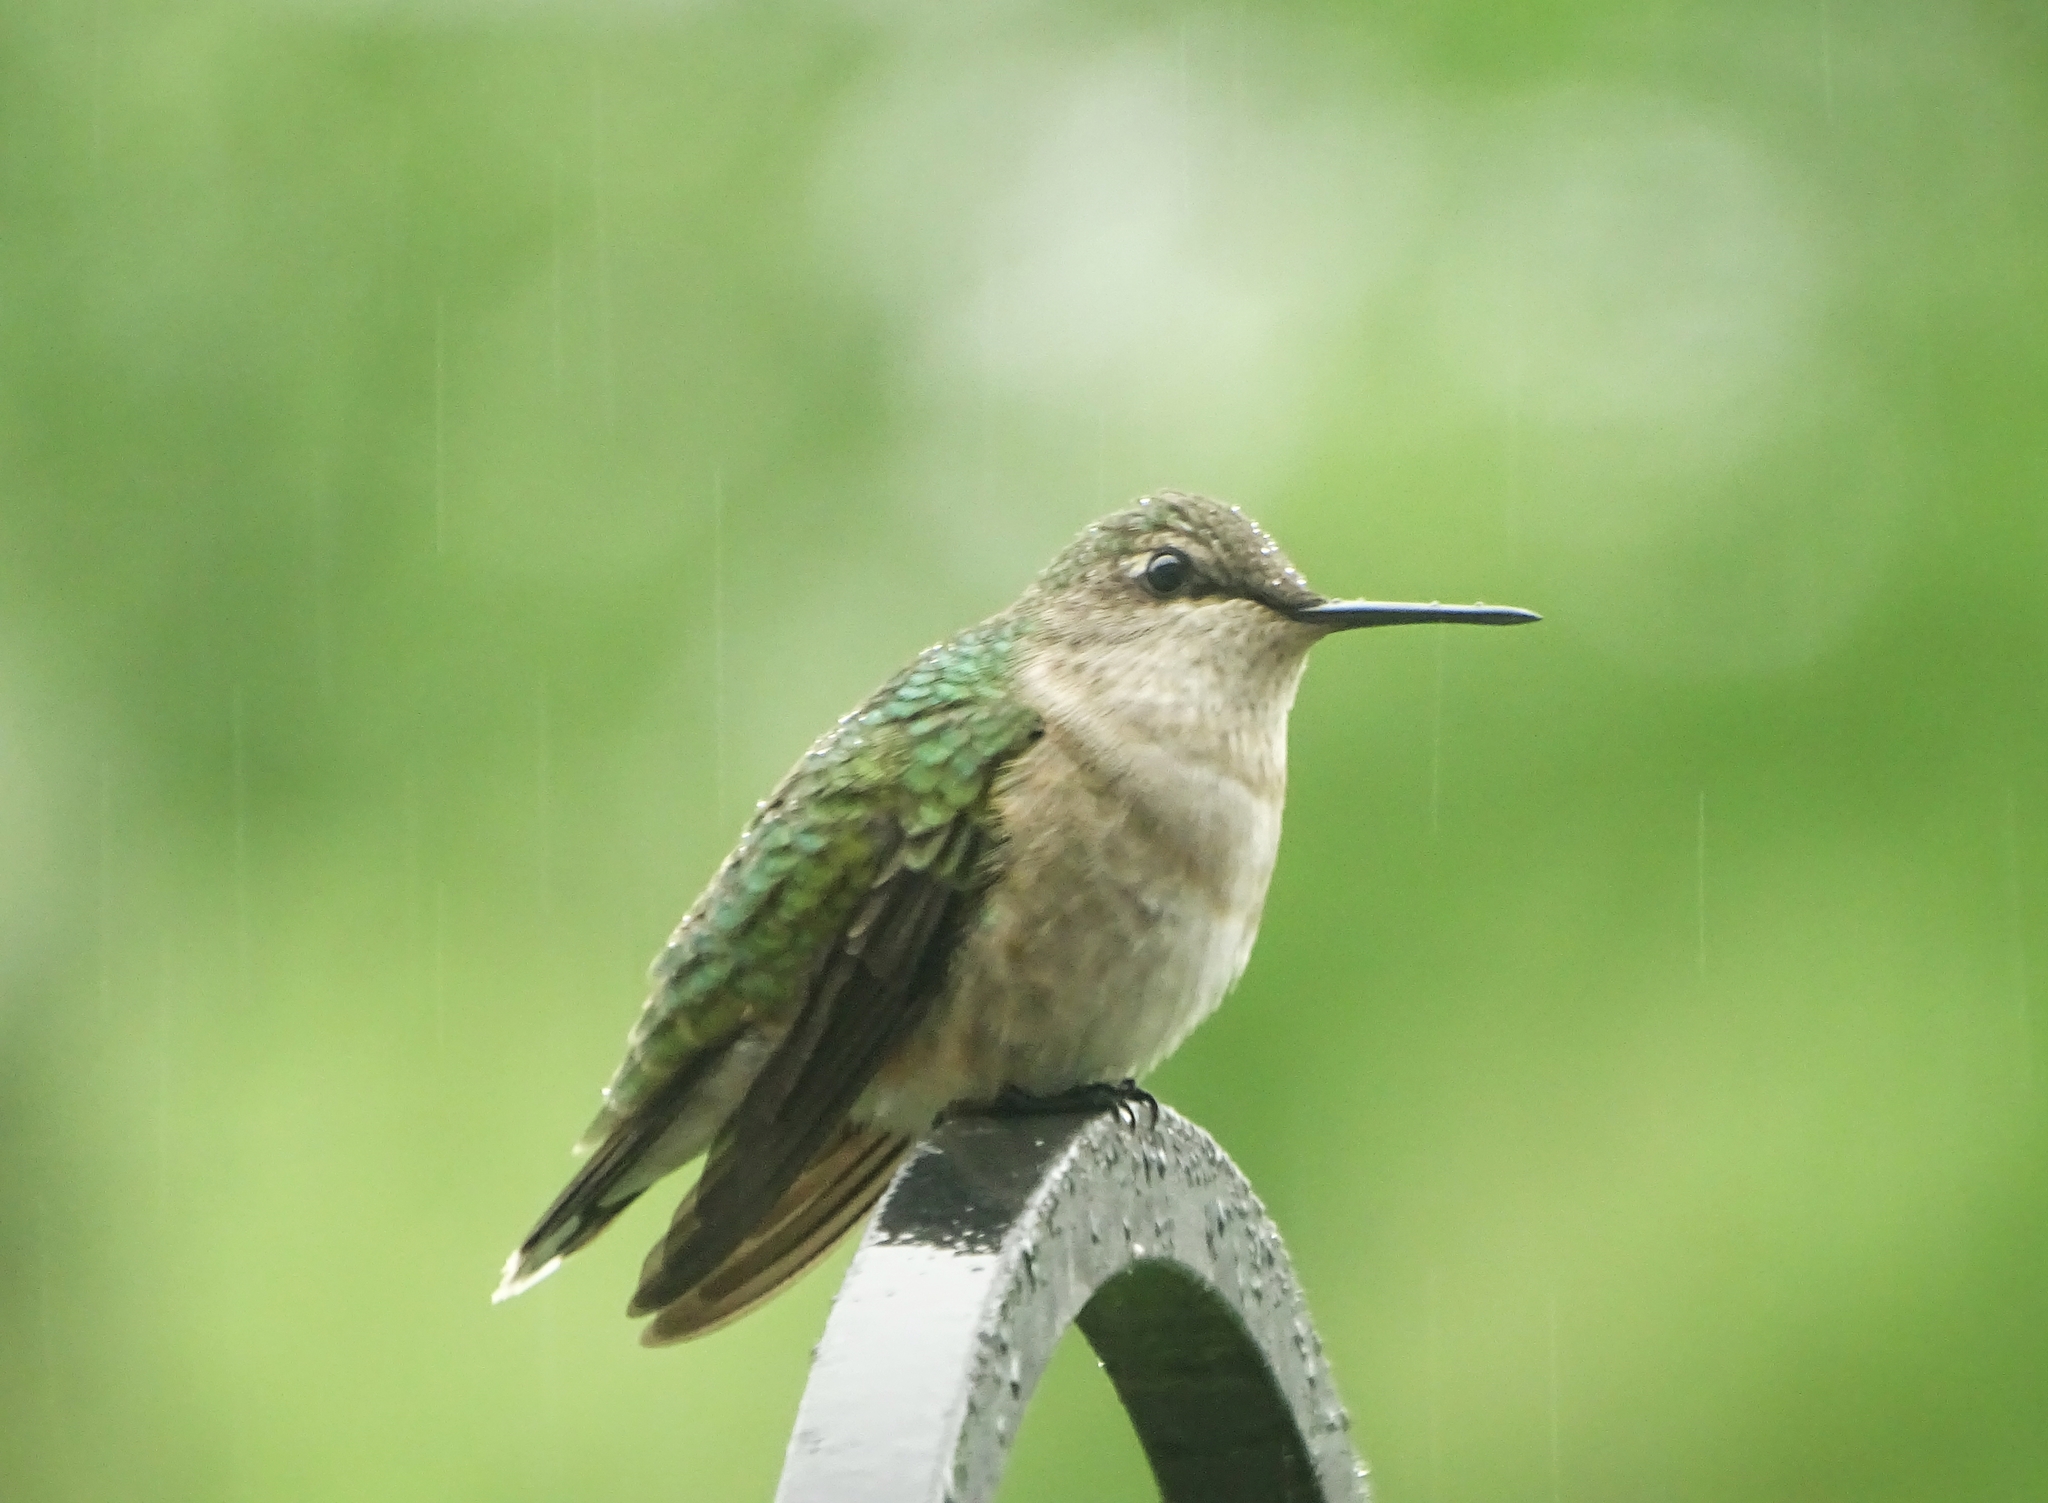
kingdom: Animalia
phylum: Chordata
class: Aves
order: Apodiformes
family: Trochilidae
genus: Archilochus
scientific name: Archilochus colubris
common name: Ruby-throated hummingbird
